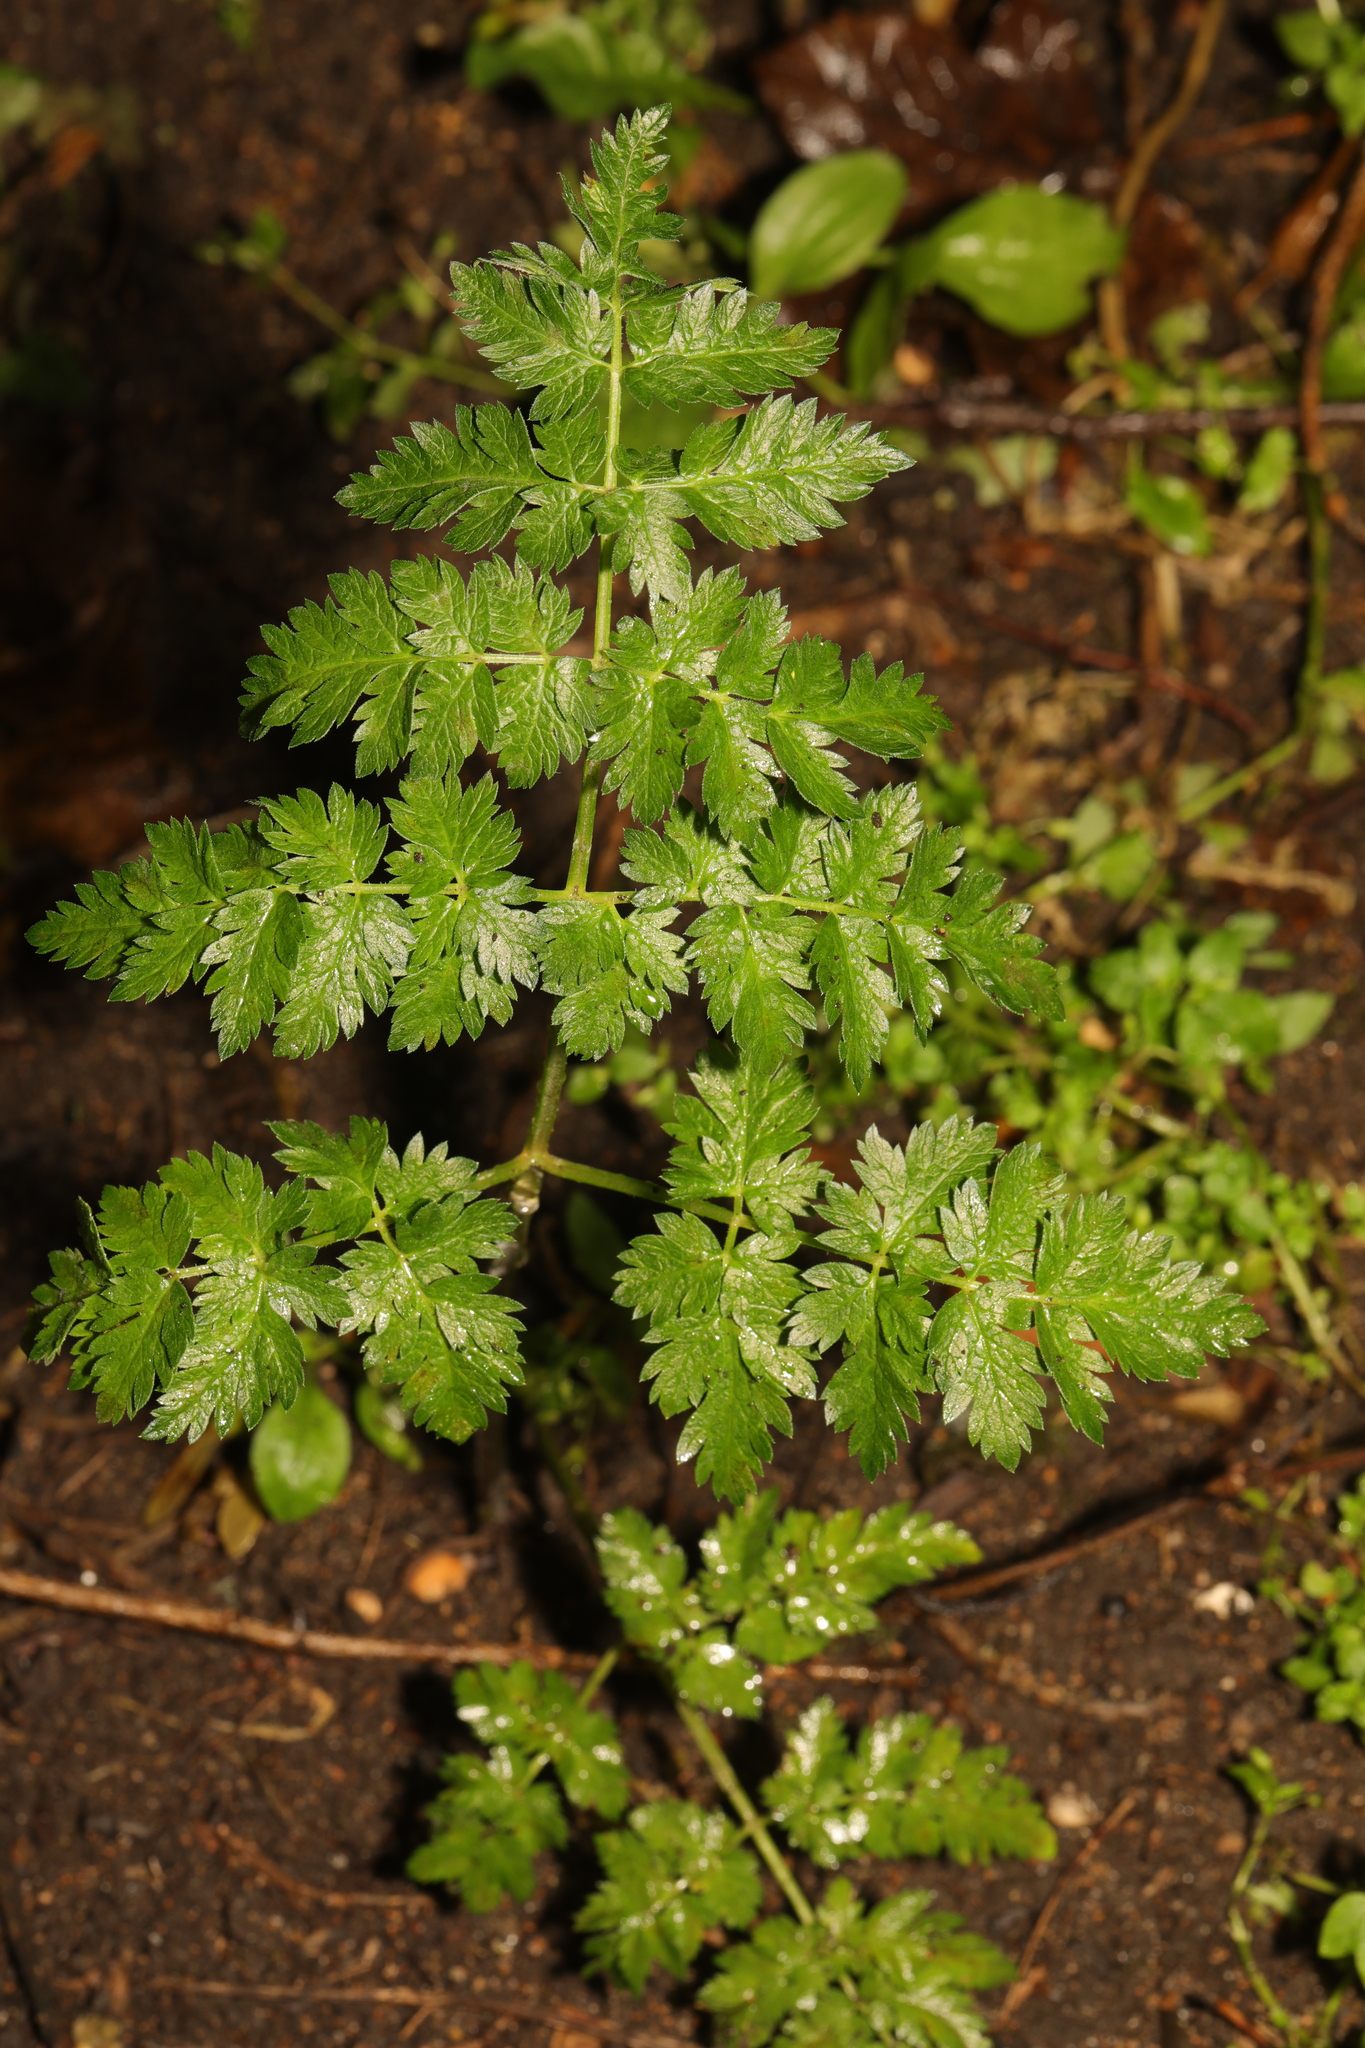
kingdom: Plantae
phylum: Tracheophyta
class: Magnoliopsida
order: Apiales
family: Apiaceae
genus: Anthriscus
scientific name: Anthriscus sylvestris
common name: Cow parsley
